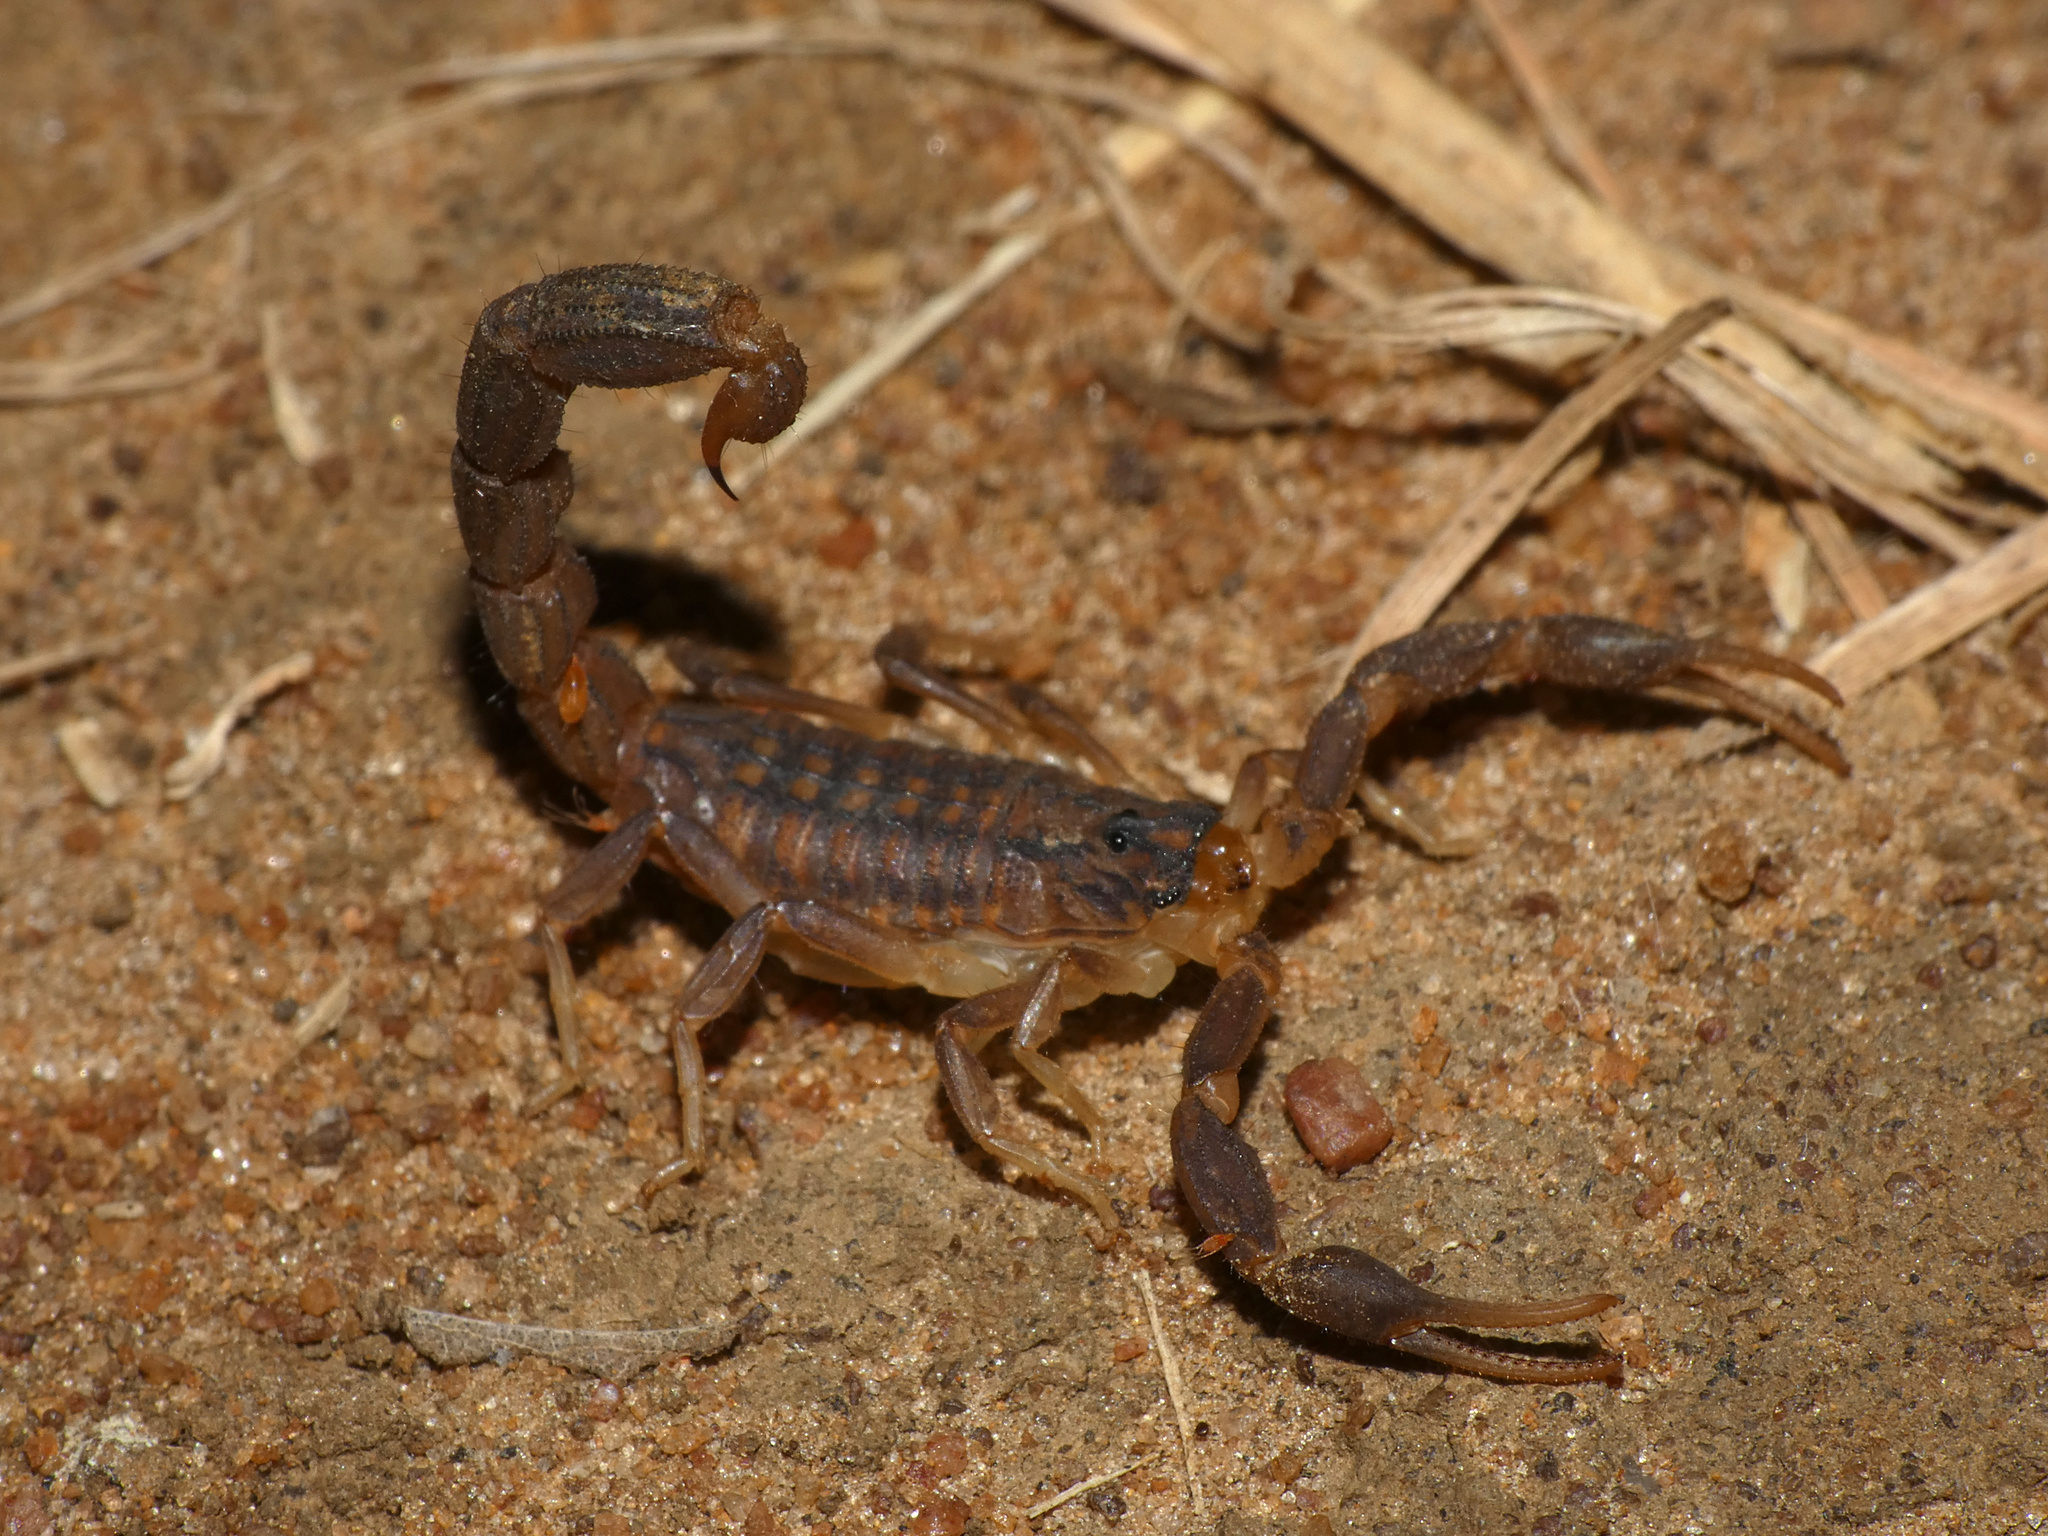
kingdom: Animalia
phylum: Arthropoda
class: Arachnida
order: Scorpiones
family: Buthidae
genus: Hottentotta
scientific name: Hottentotta trilineatus
